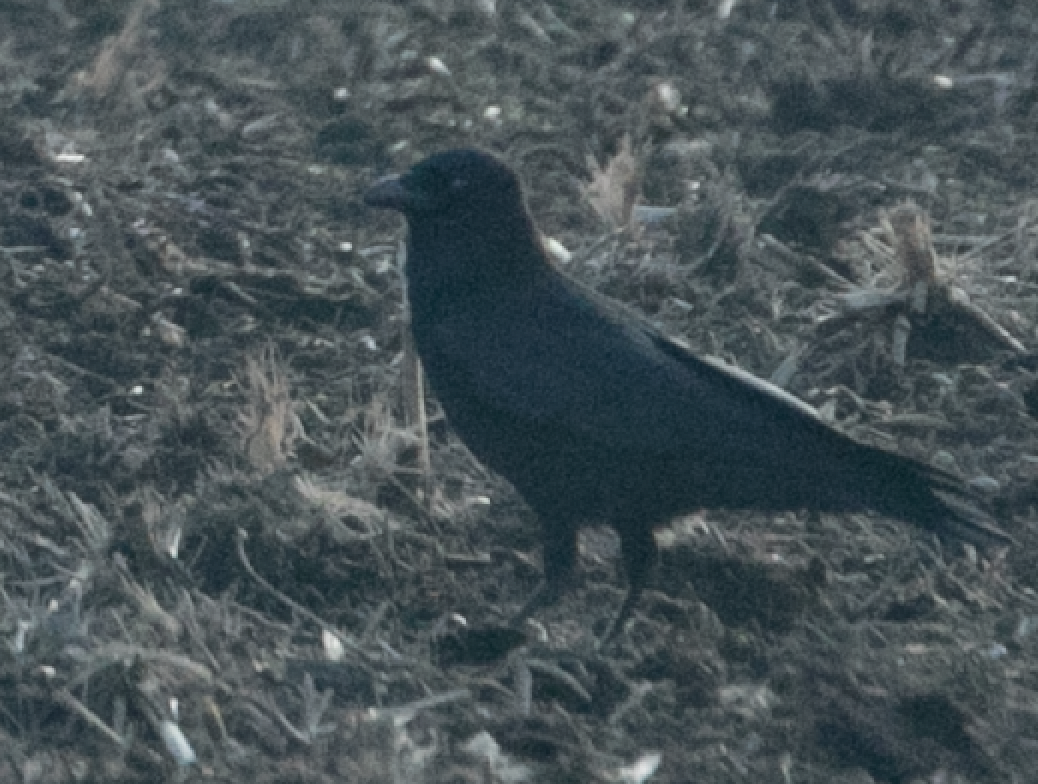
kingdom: Animalia
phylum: Chordata
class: Aves
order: Passeriformes
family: Corvidae
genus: Corvus
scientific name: Corvus corone
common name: Carrion crow
